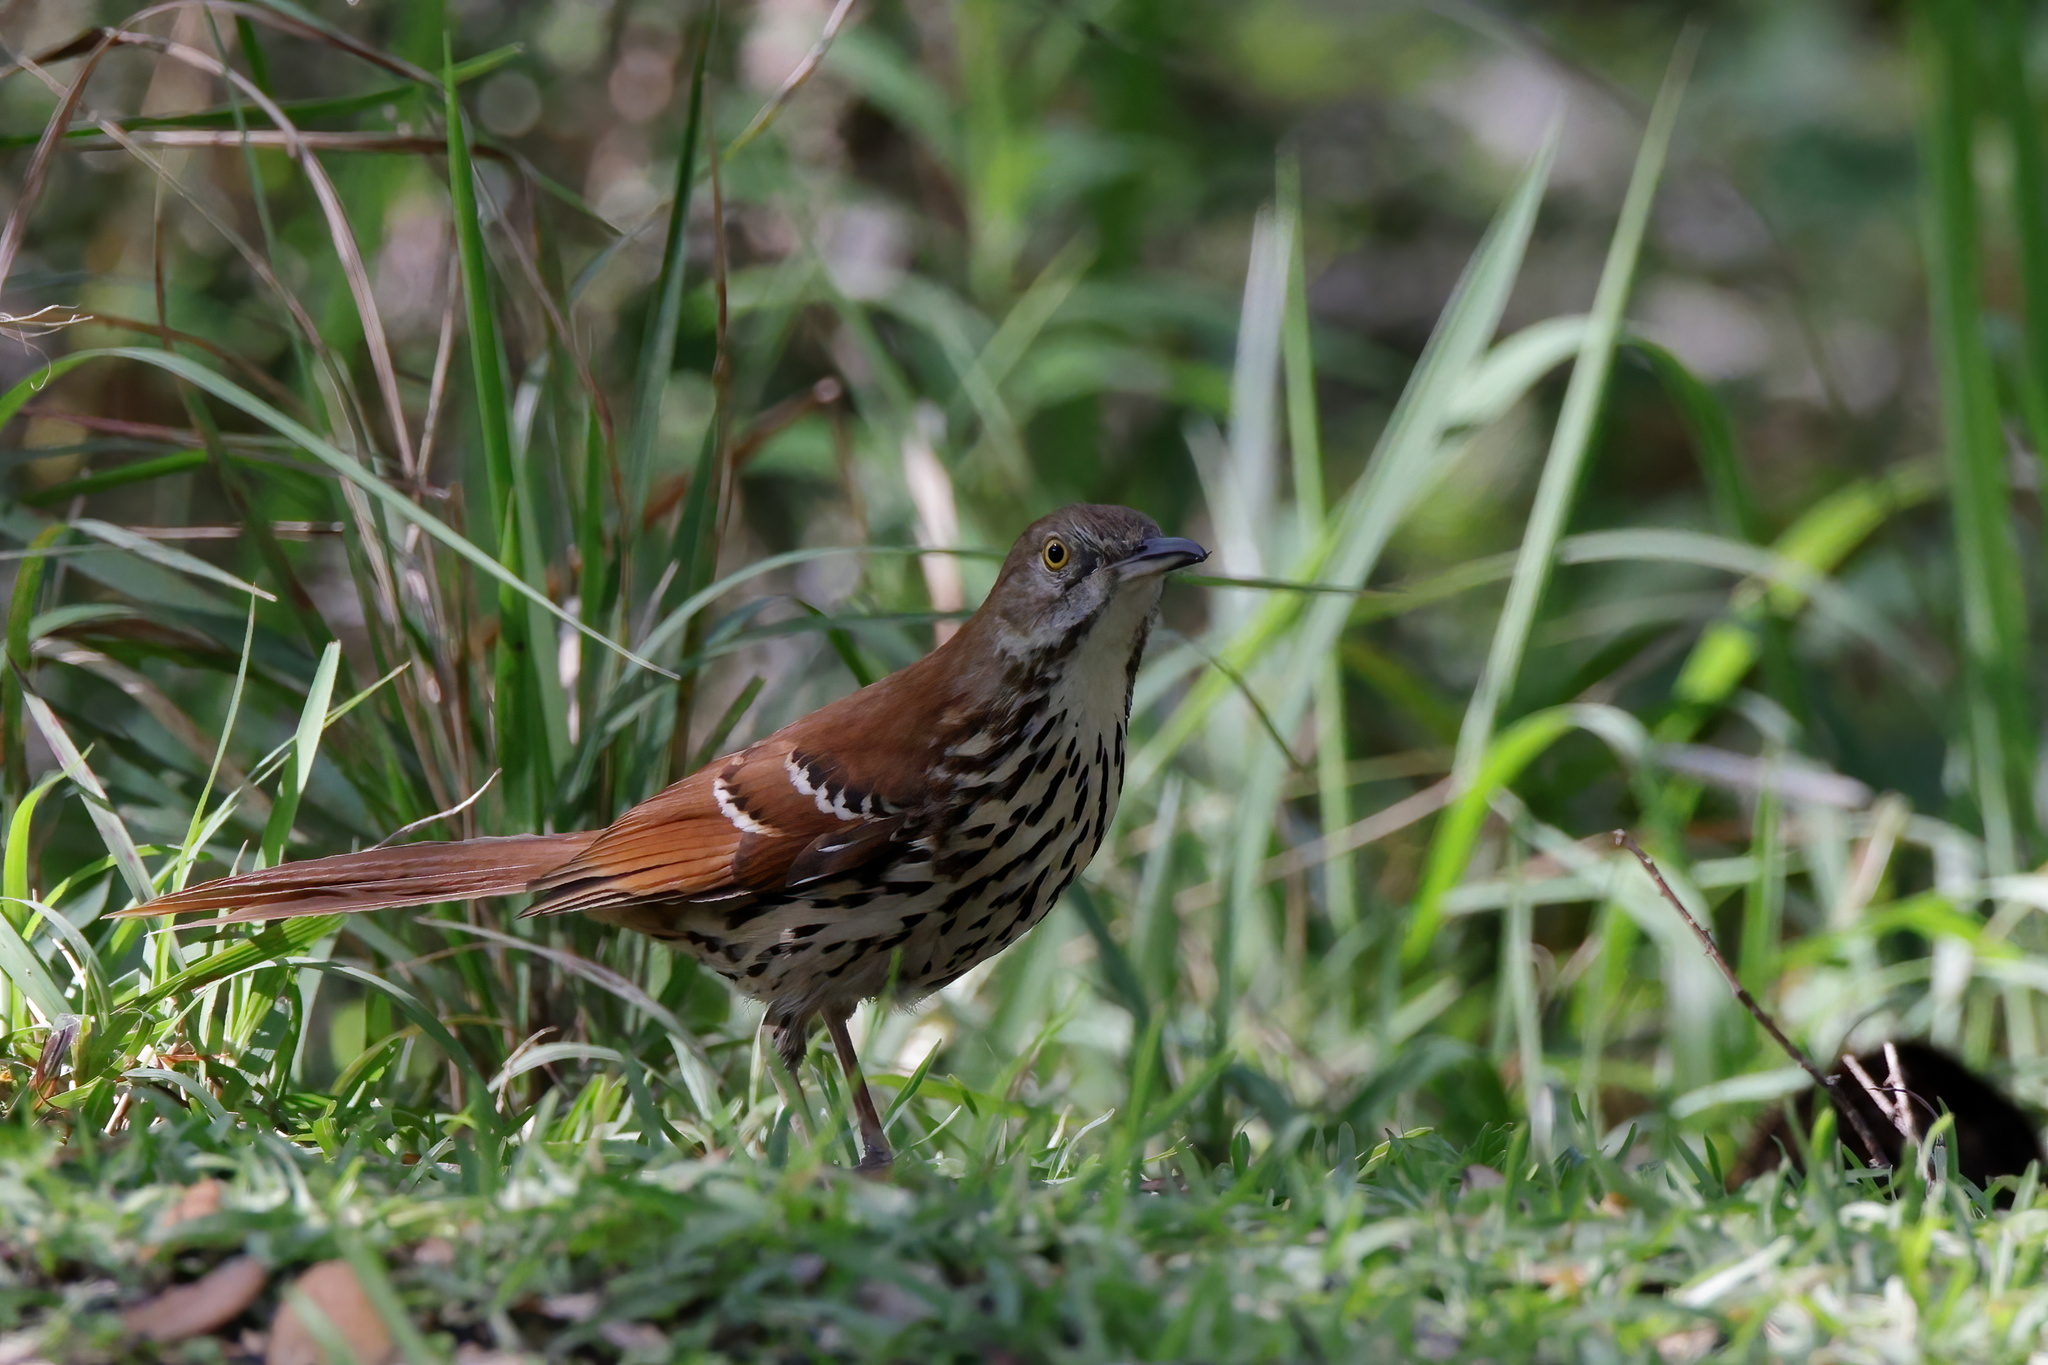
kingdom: Animalia
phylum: Chordata
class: Aves
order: Passeriformes
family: Mimidae
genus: Toxostoma
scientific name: Toxostoma rufum
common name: Brown thrasher
